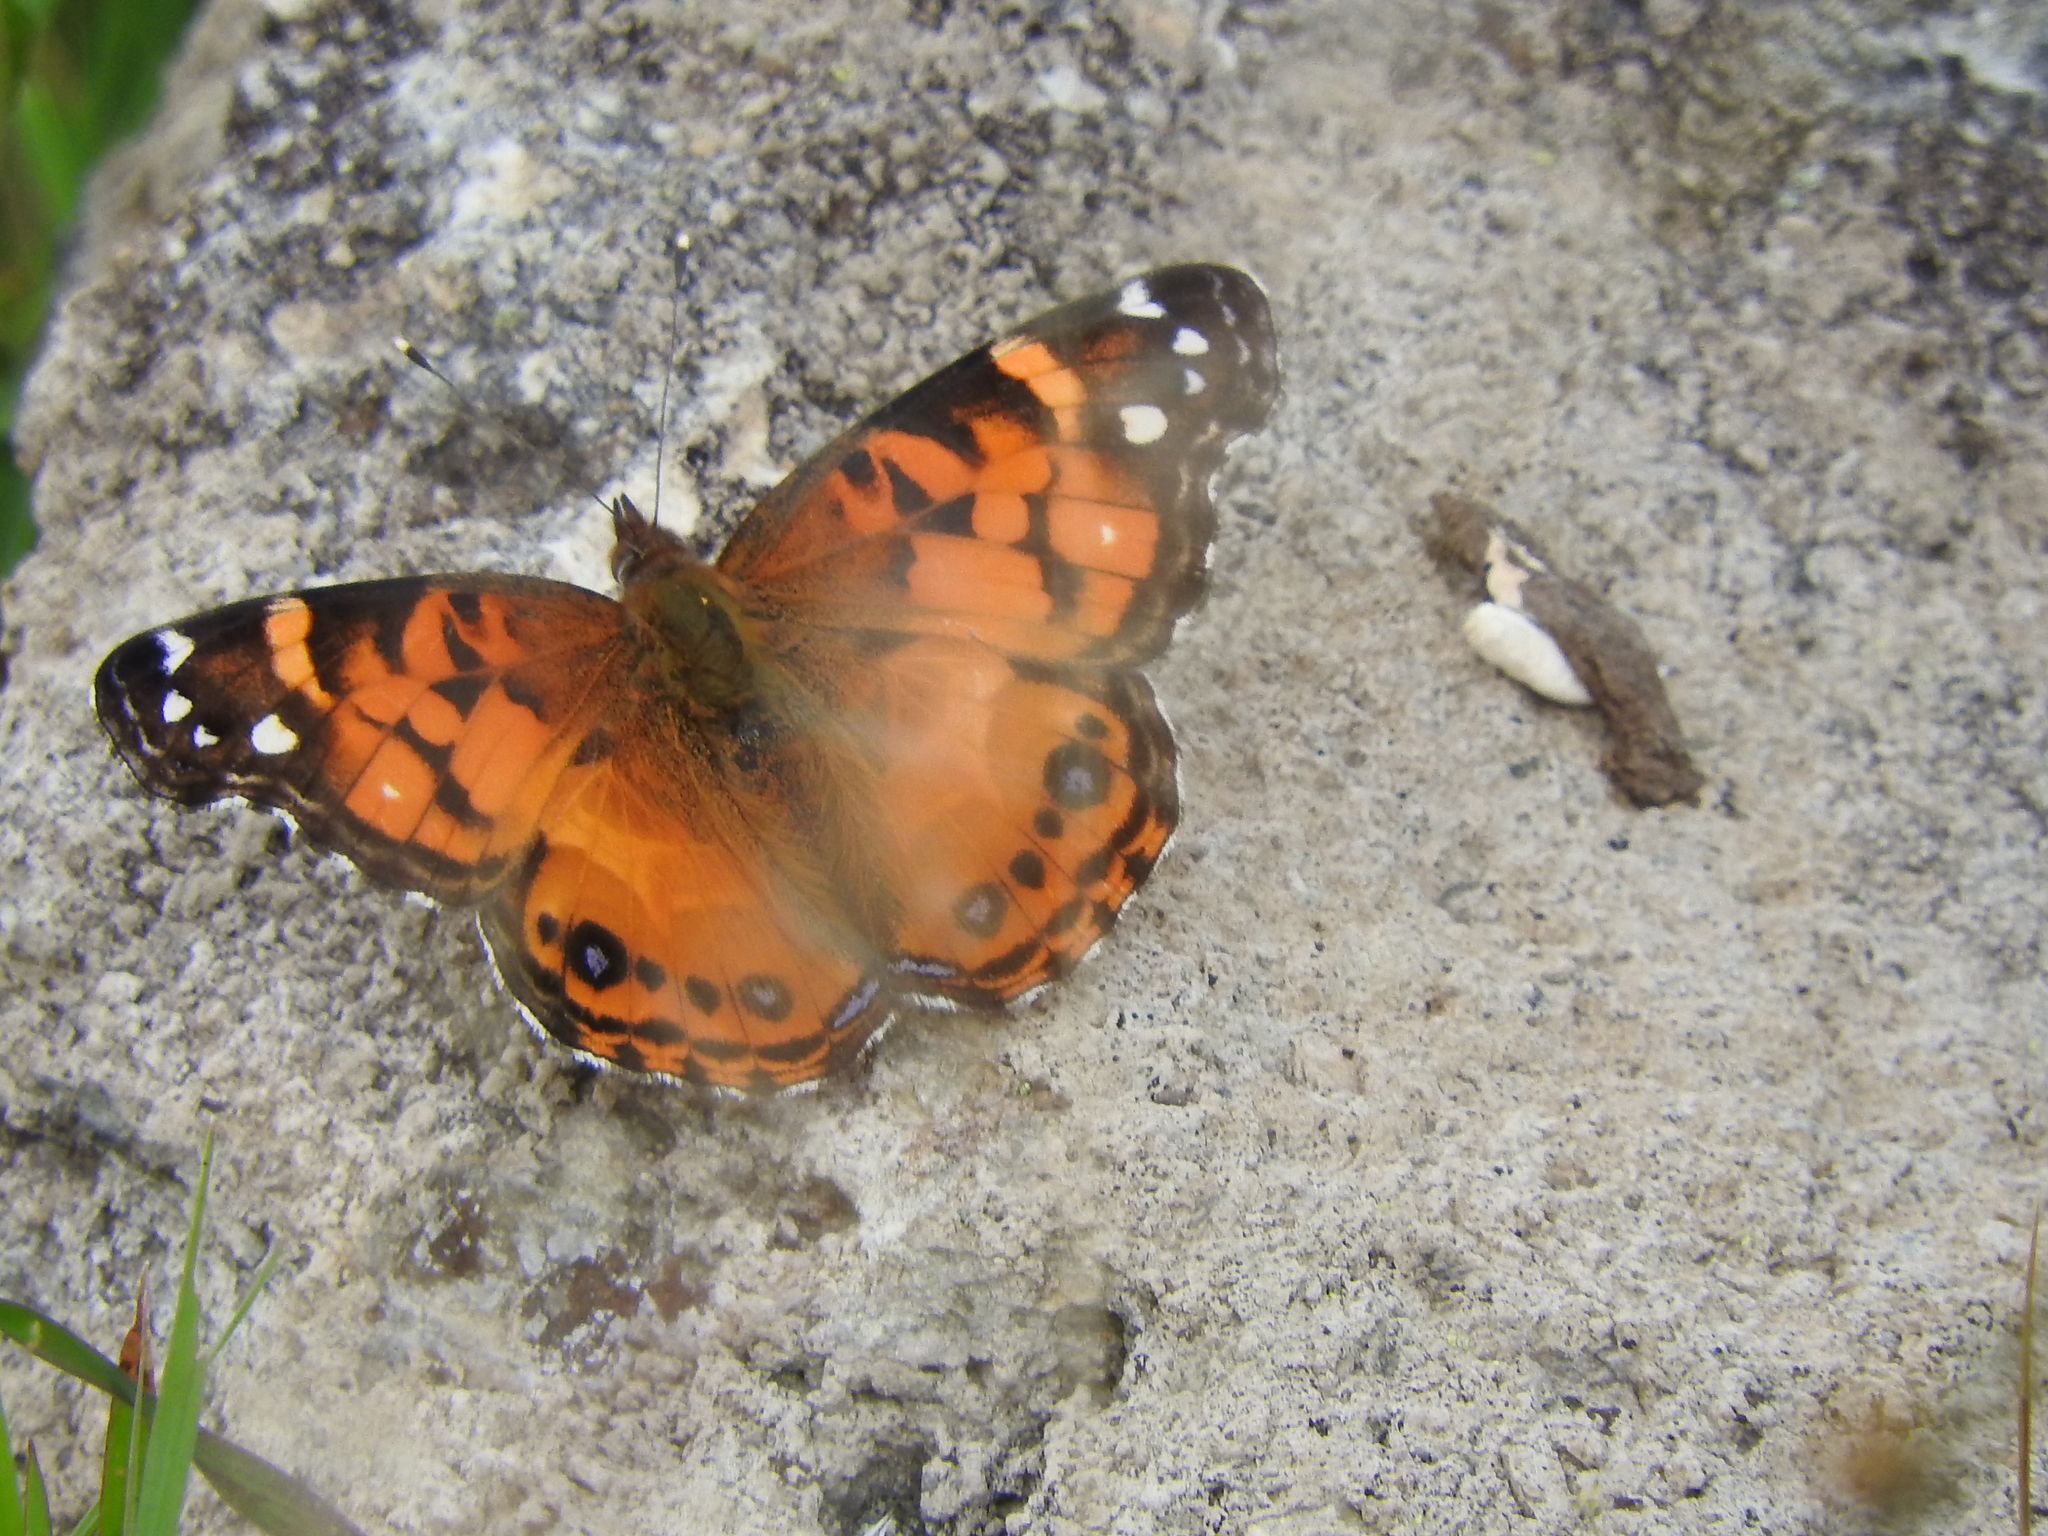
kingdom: Animalia
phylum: Arthropoda
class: Insecta
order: Lepidoptera
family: Nymphalidae
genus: Vanessa
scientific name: Vanessa virginiensis
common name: American lady
